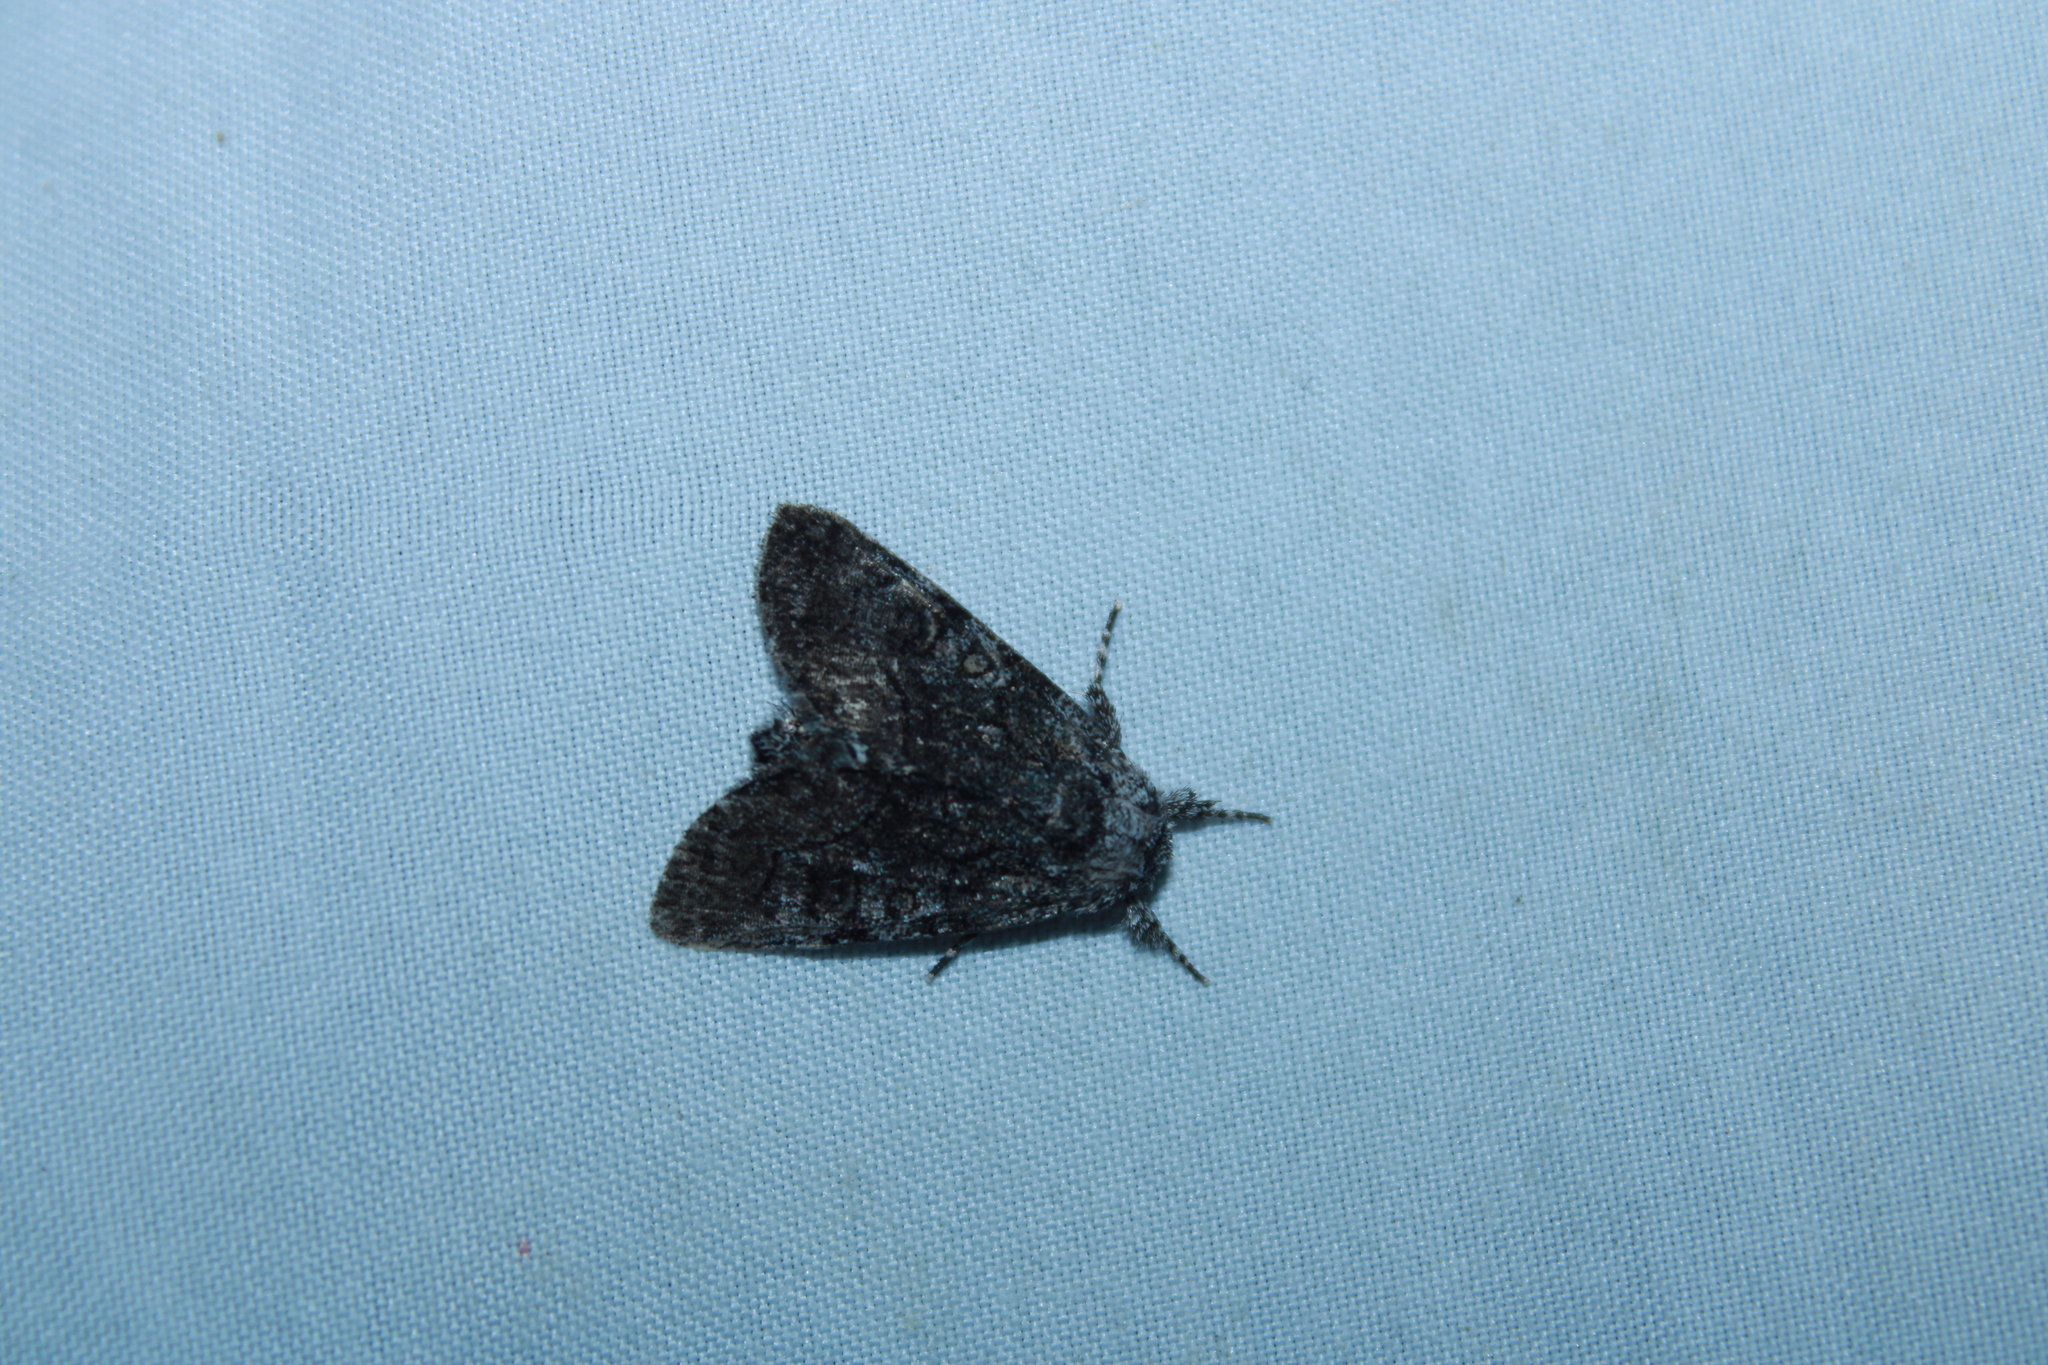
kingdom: Animalia
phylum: Arthropoda
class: Insecta
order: Lepidoptera
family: Noctuidae
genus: Raphia
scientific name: Raphia frater
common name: Brother
